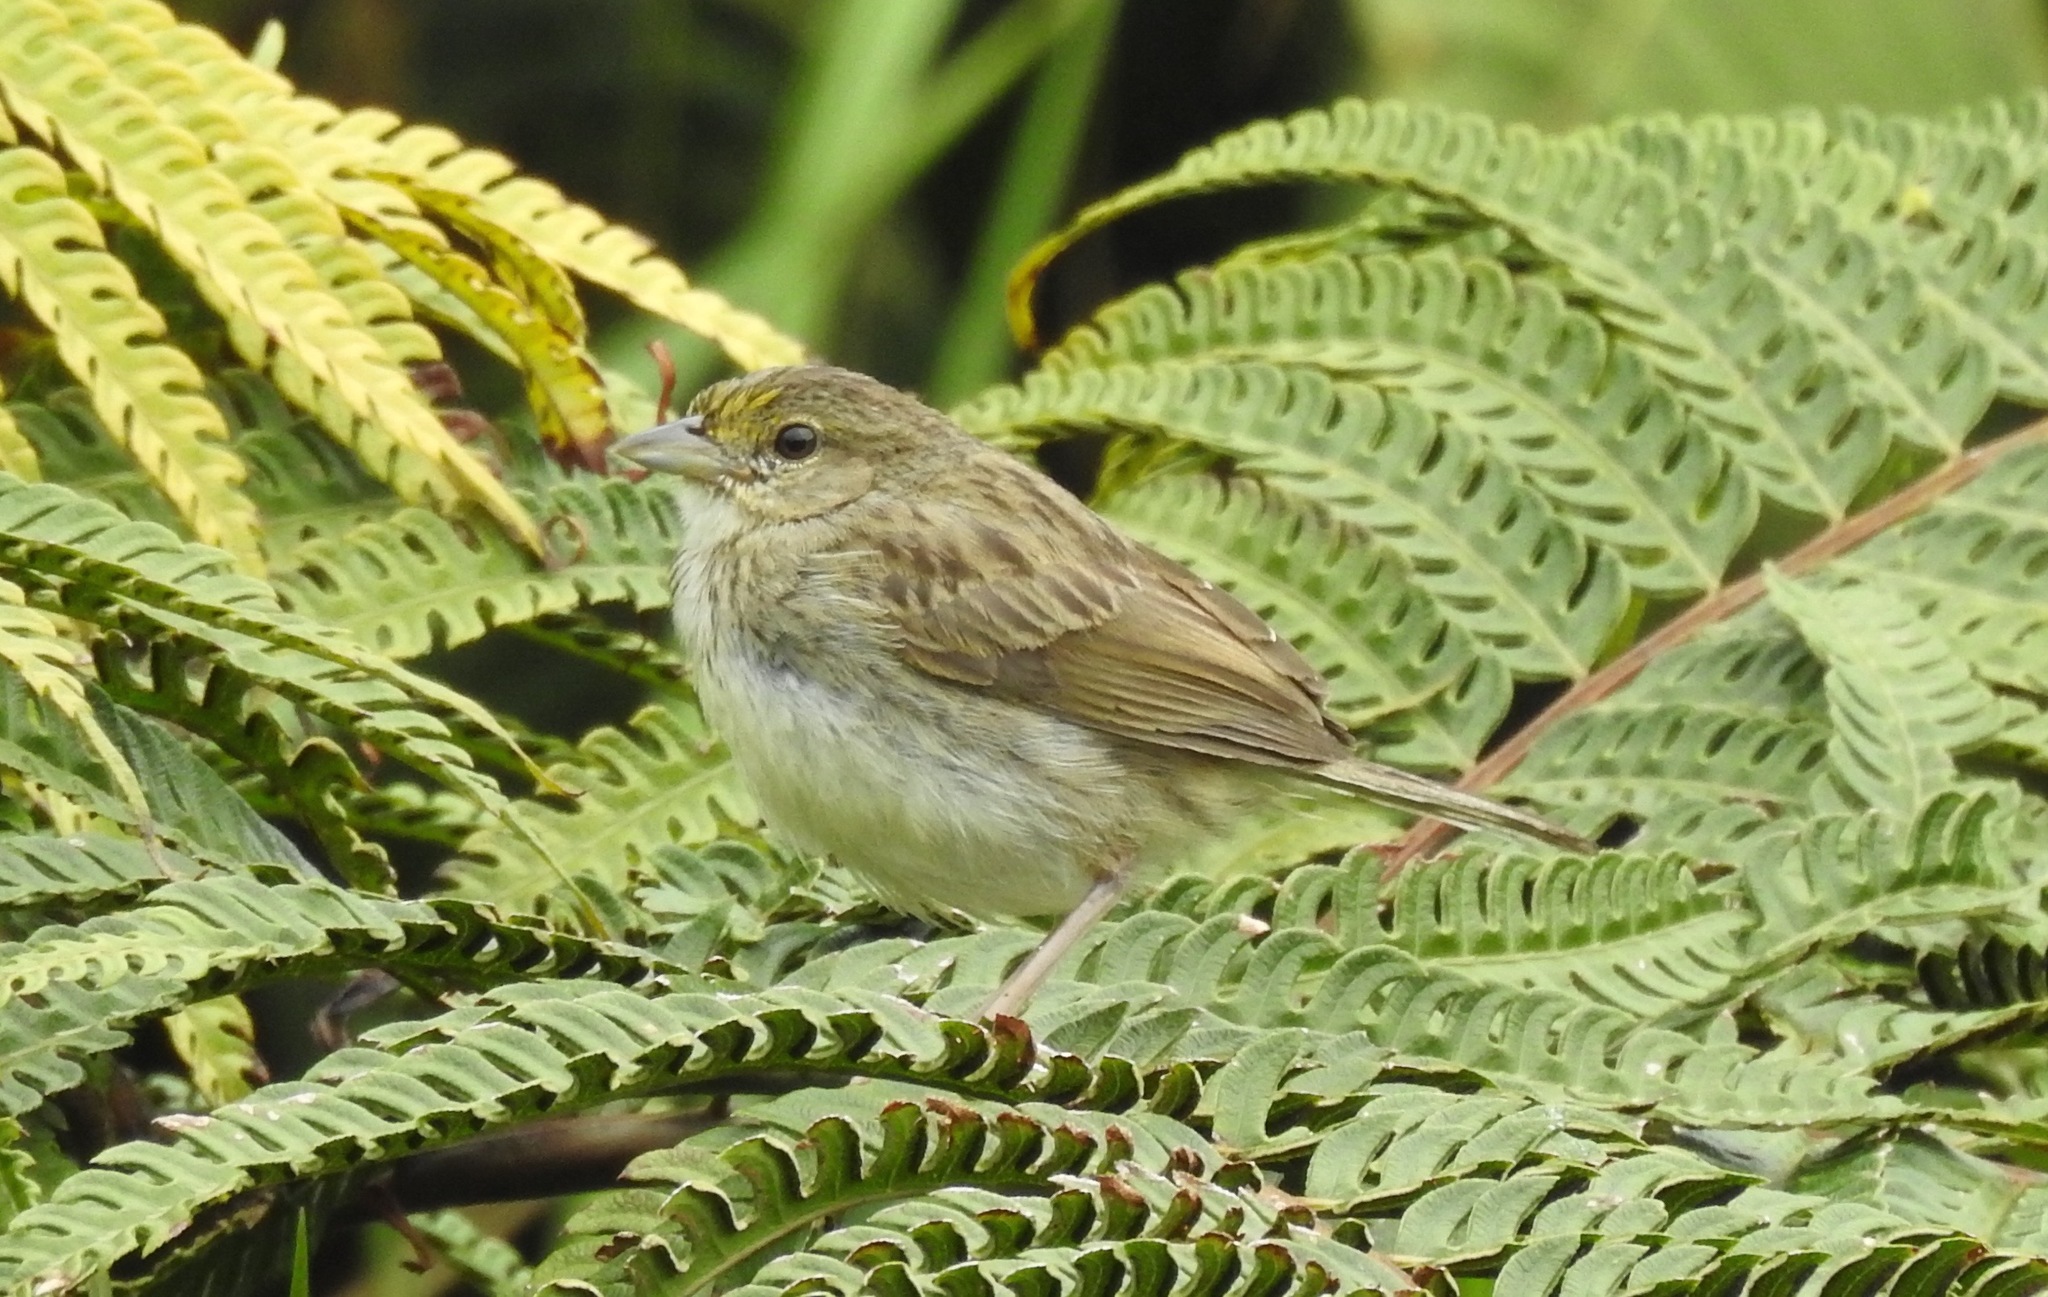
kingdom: Animalia
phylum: Chordata
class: Aves
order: Passeriformes
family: Passerellidae
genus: Ammodramus
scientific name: Ammodramus aurifrons
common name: Yellow-browed sparrow
